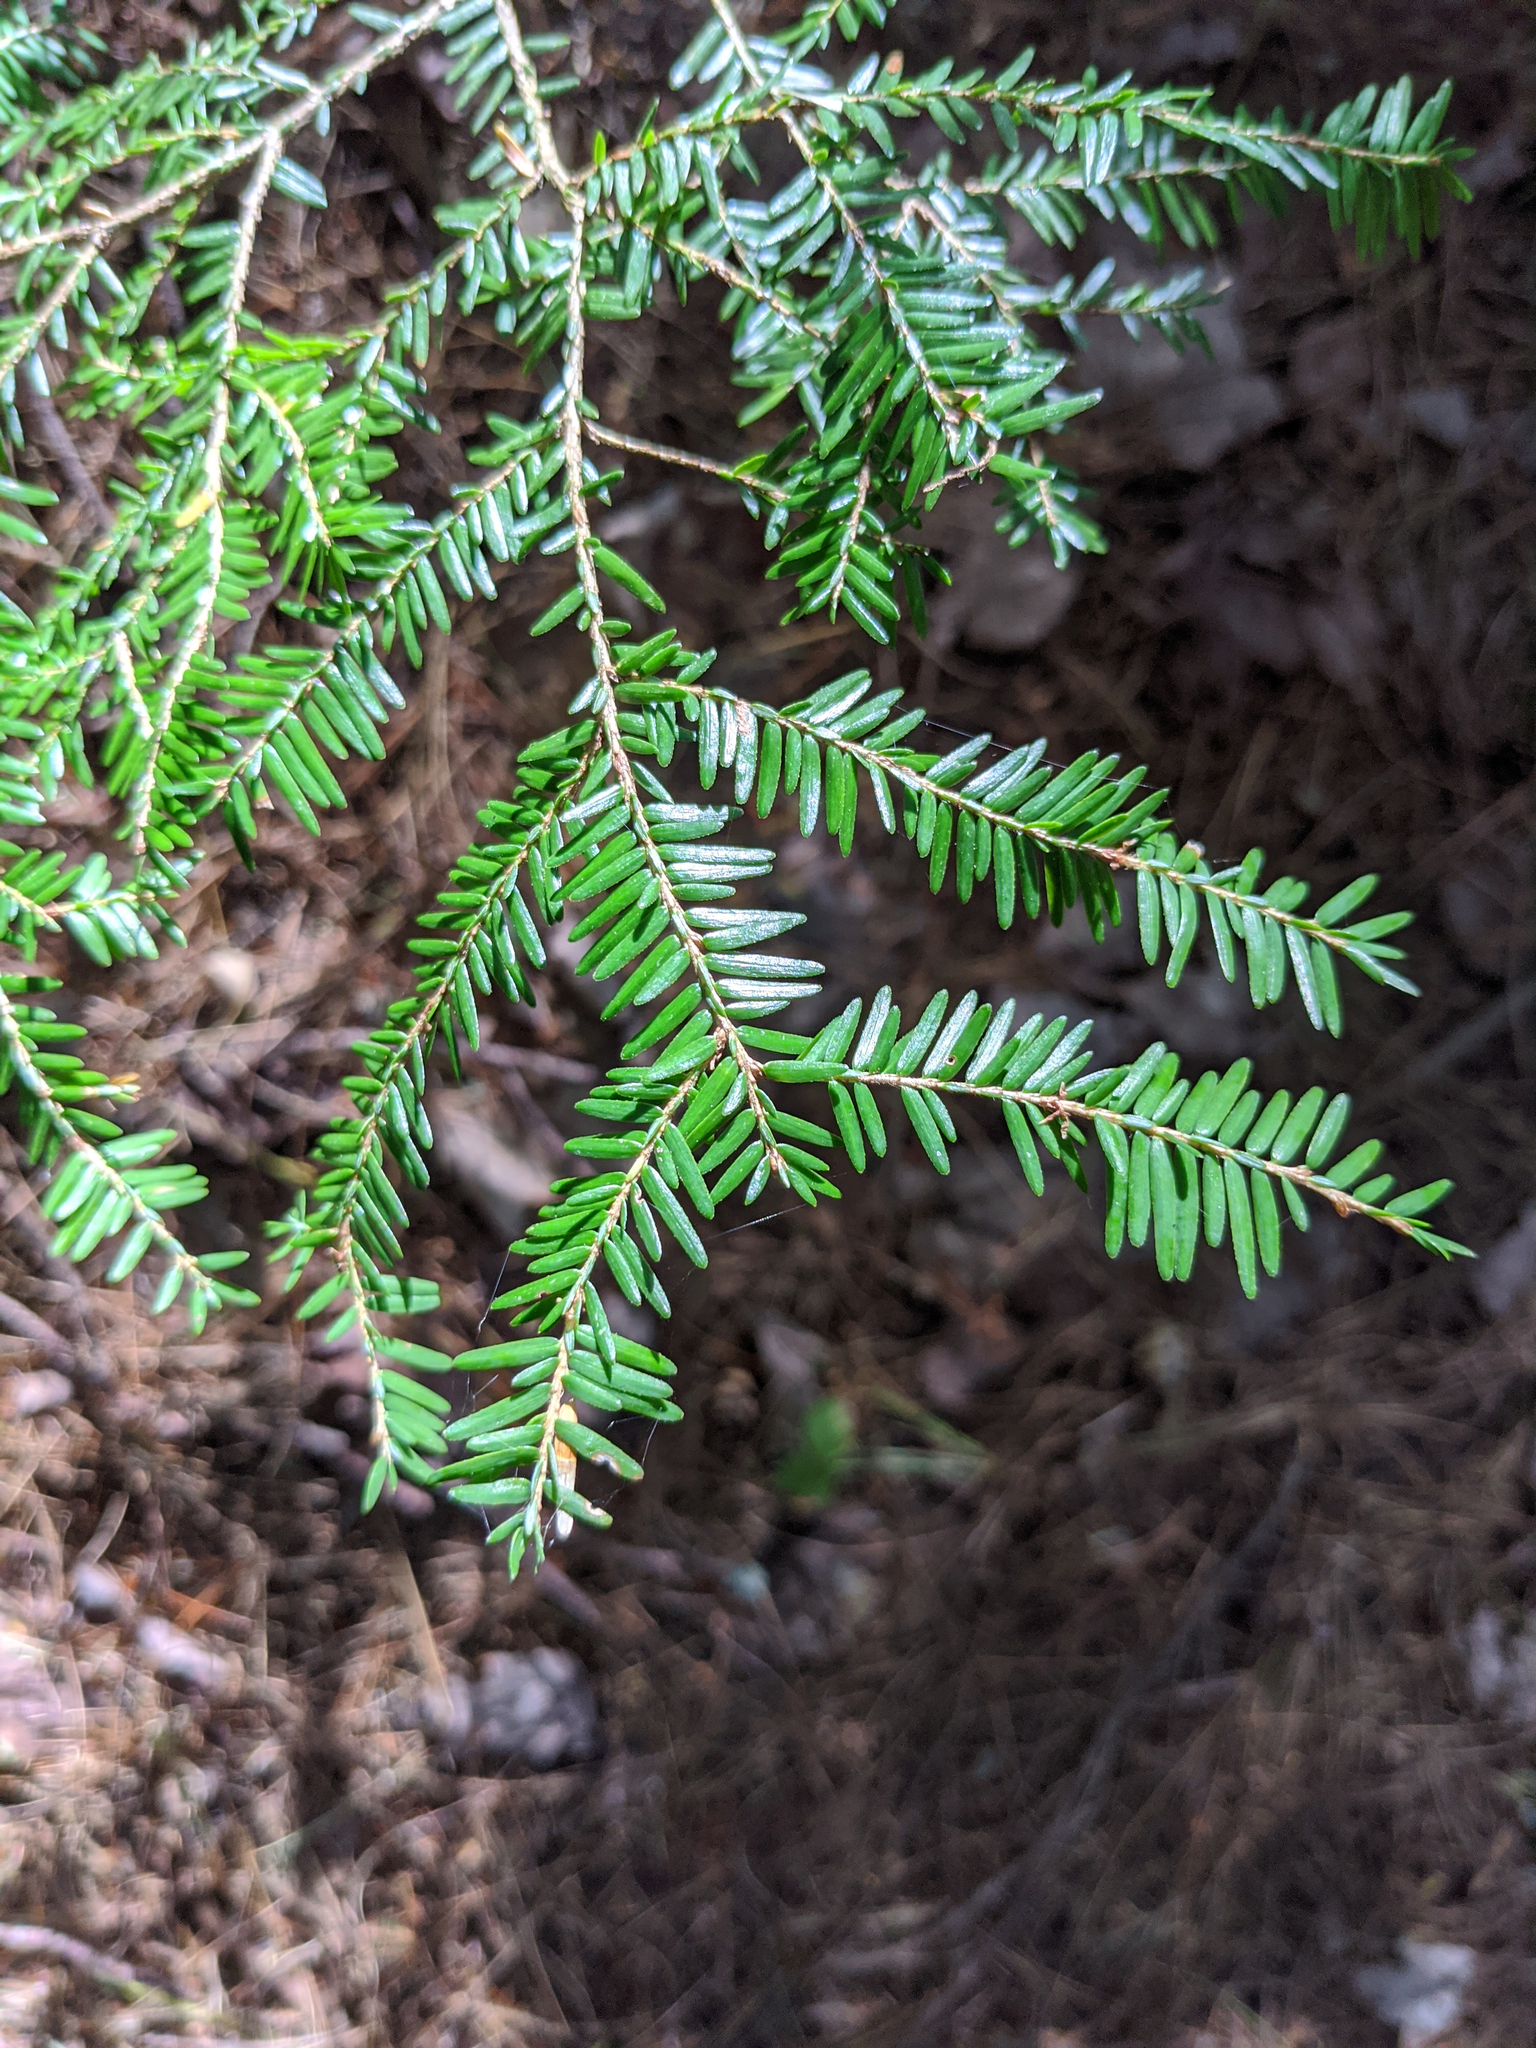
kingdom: Plantae
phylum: Tracheophyta
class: Pinopsida
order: Pinales
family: Pinaceae
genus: Tsuga
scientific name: Tsuga canadensis
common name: Eastern hemlock
